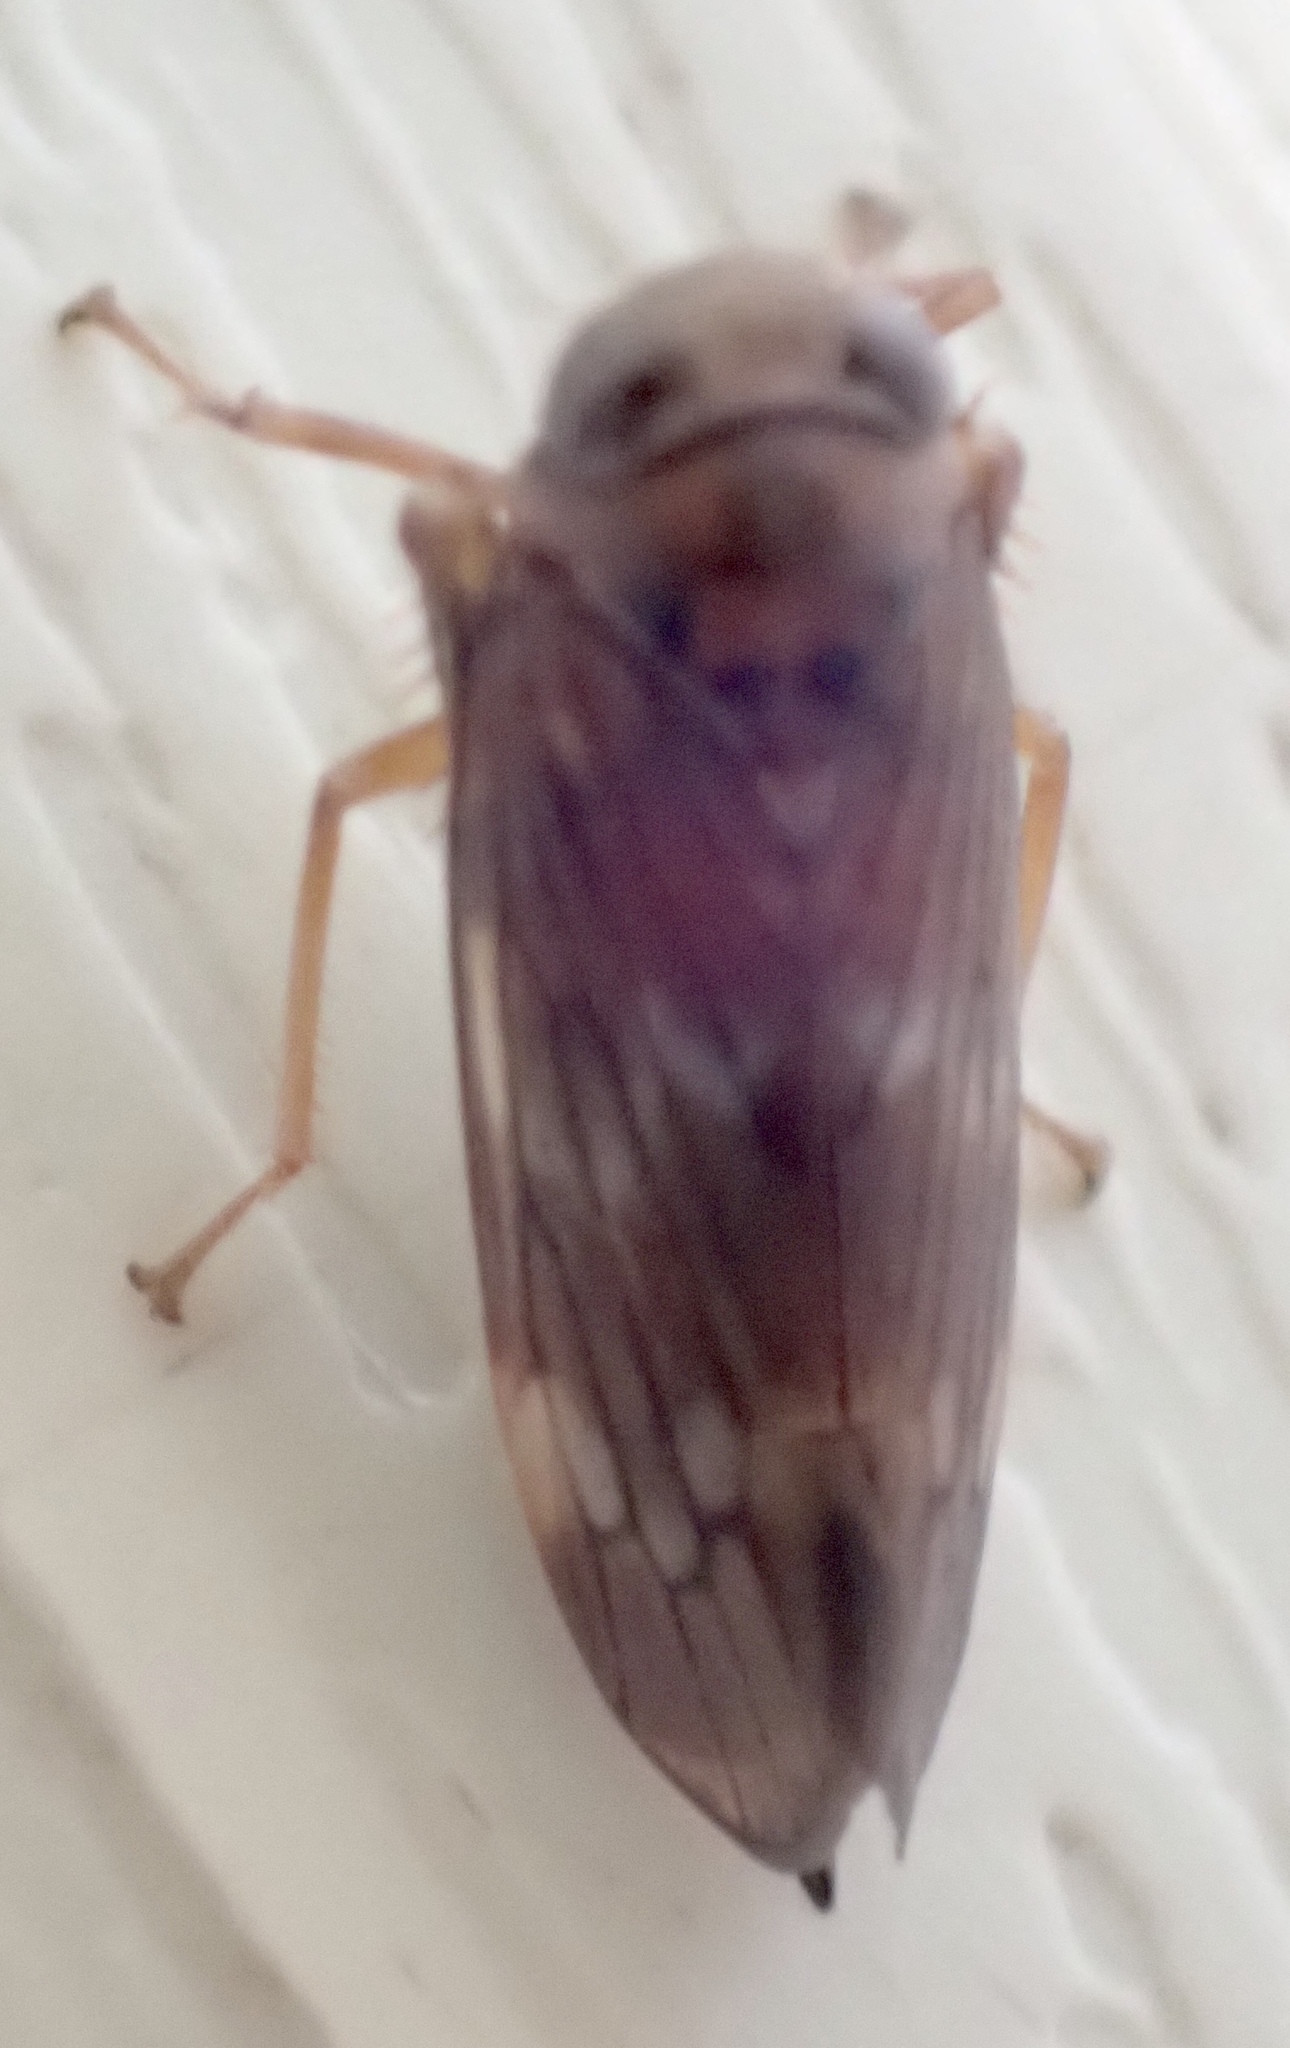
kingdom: Animalia
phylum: Arthropoda
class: Insecta
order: Hemiptera
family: Cicadellidae
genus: Jikradia
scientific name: Jikradia olitoria
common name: Coppery leafhopper
